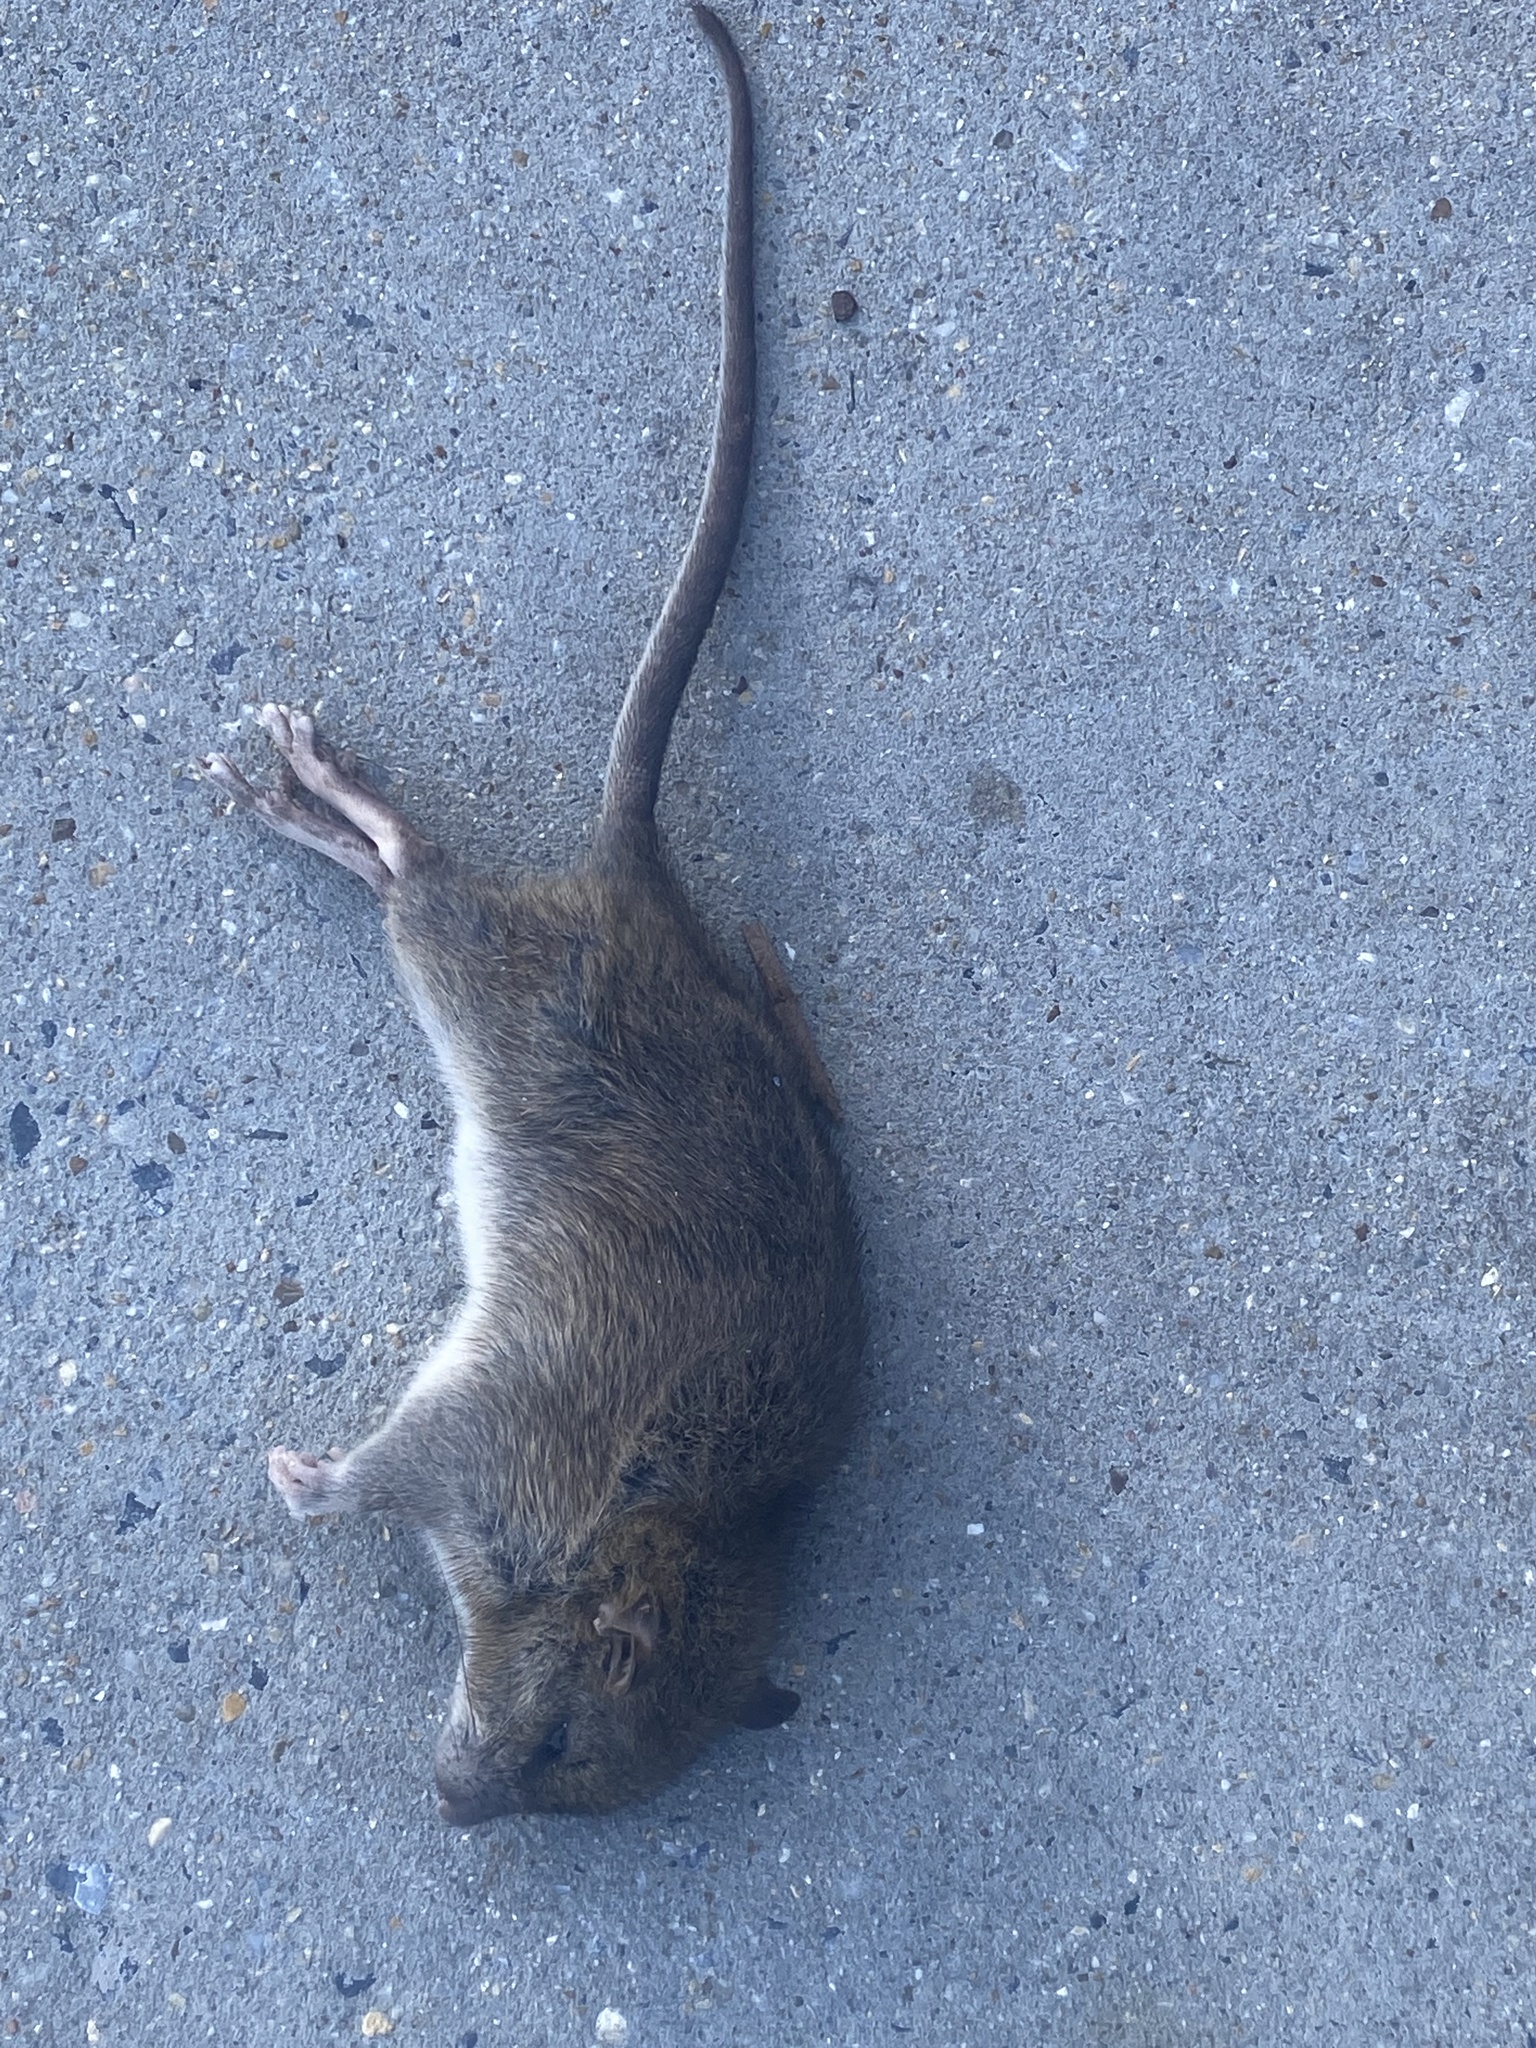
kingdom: Animalia
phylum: Chordata
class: Mammalia
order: Rodentia
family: Muridae
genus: Rattus
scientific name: Rattus norvegicus
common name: Brown rat
